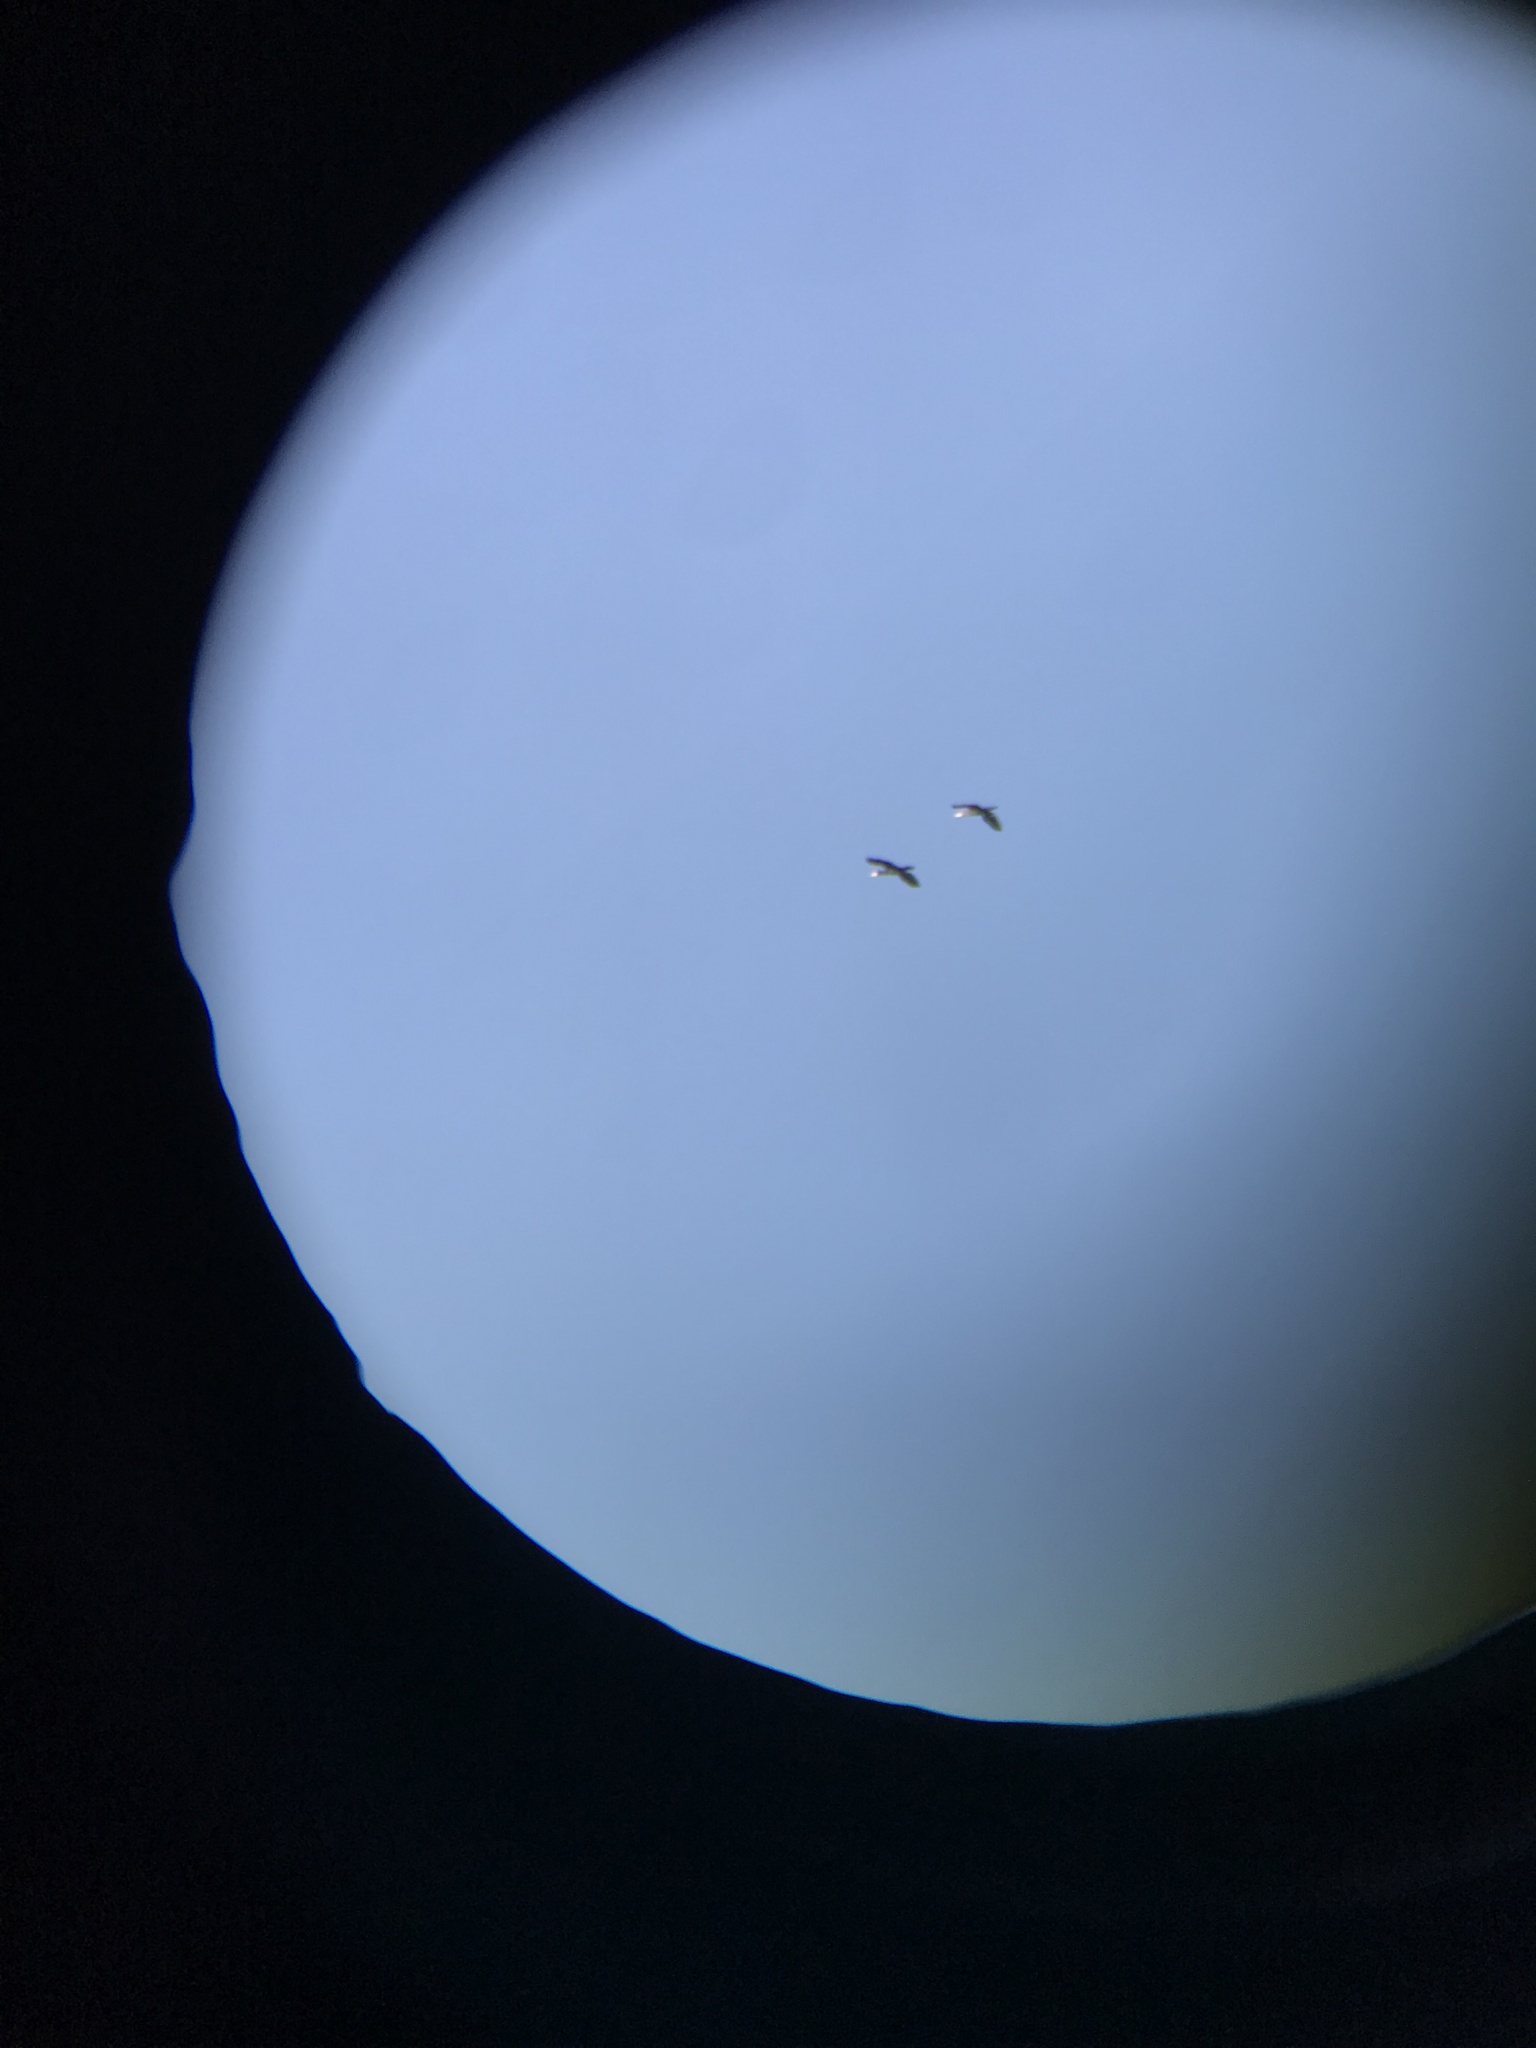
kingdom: Animalia
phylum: Chordata
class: Aves
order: Suliformes
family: Phalacrocoracidae
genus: Phalacrocorax
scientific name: Phalacrocorax carbo
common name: Great cormorant
